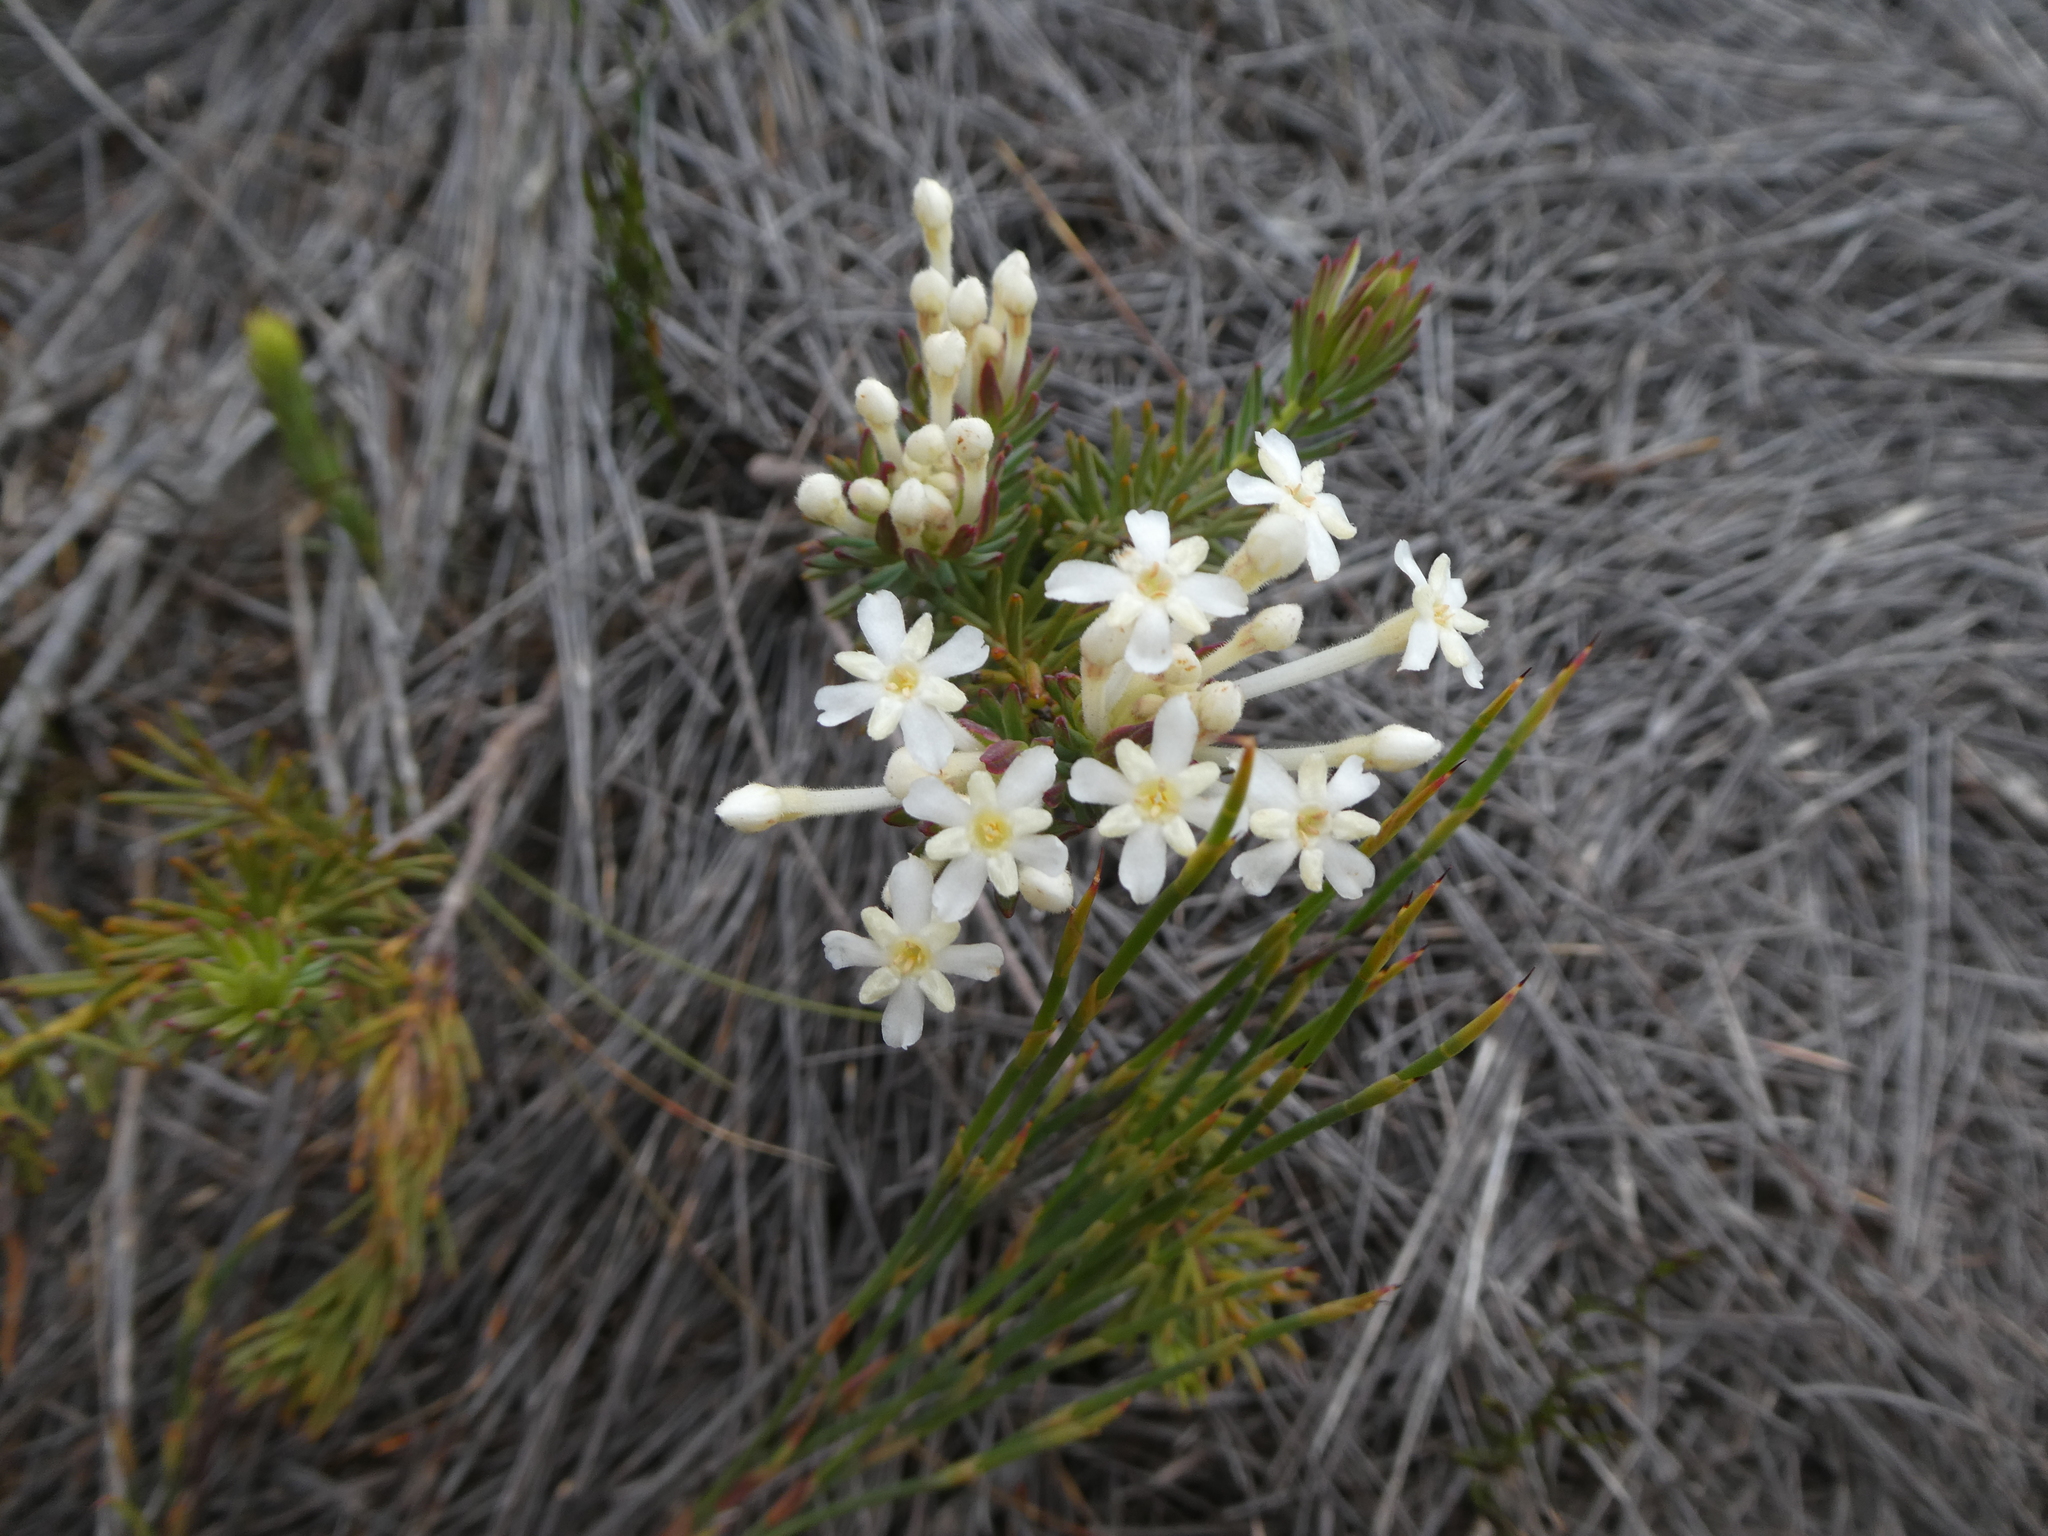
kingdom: Plantae
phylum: Tracheophyta
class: Magnoliopsida
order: Malvales
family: Thymelaeaceae
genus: Gnidia
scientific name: Gnidia pinifolia
